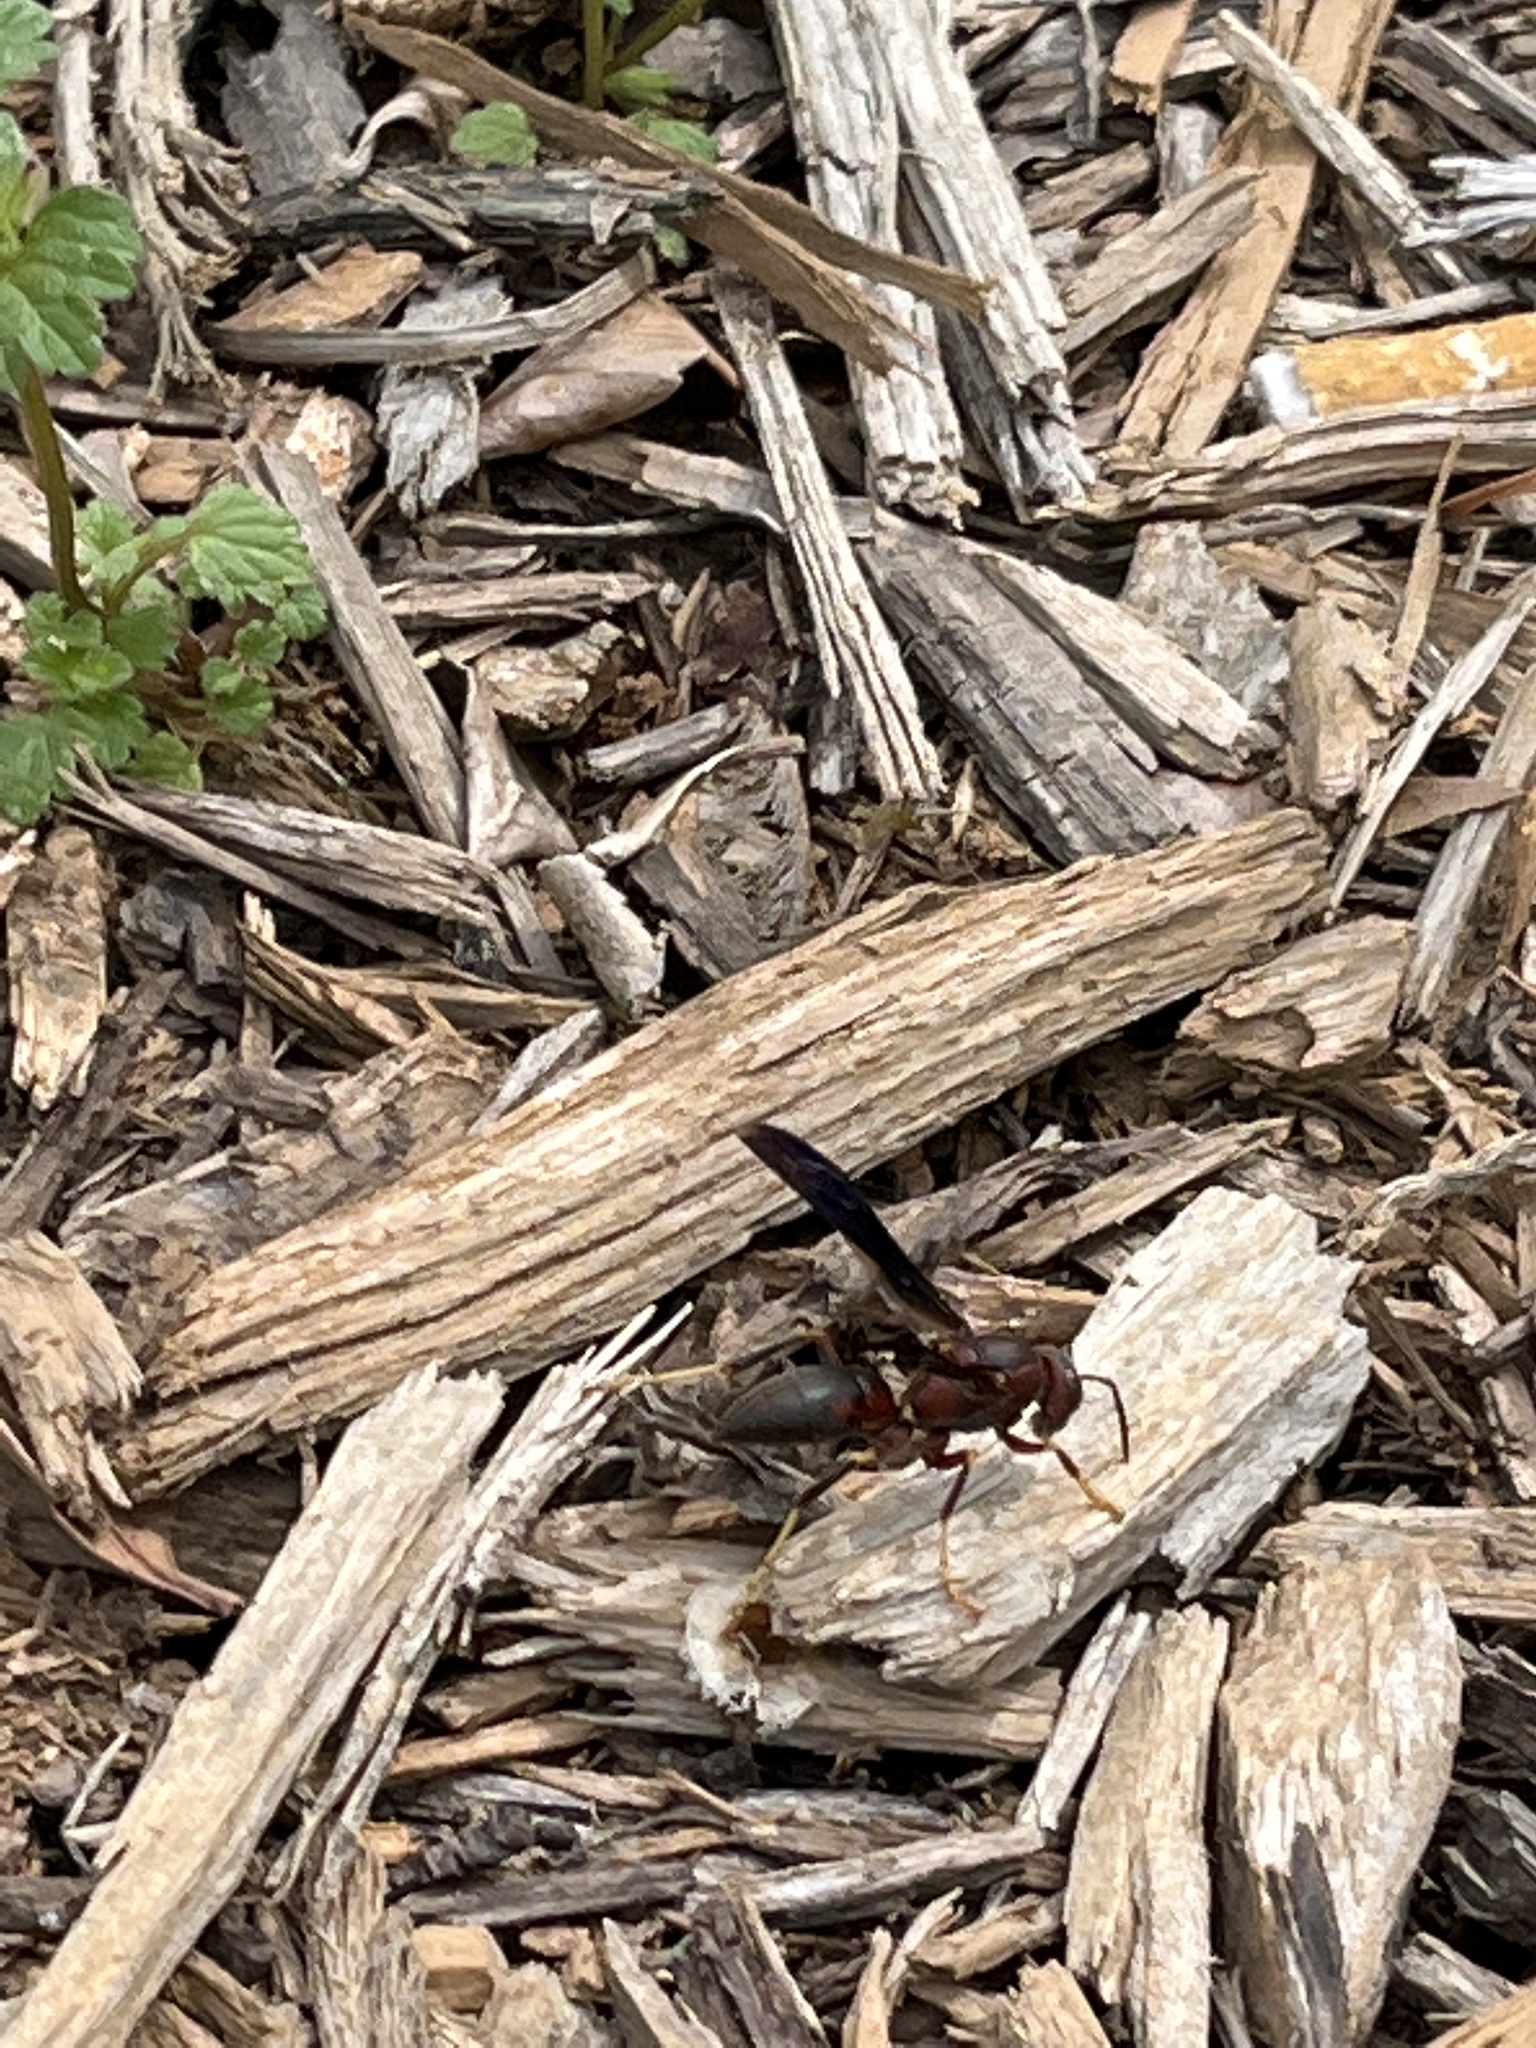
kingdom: Animalia
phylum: Arthropoda
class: Insecta
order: Hymenoptera
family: Eumenidae
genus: Polistes
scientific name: Polistes metricus
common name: Metric paper wasp
